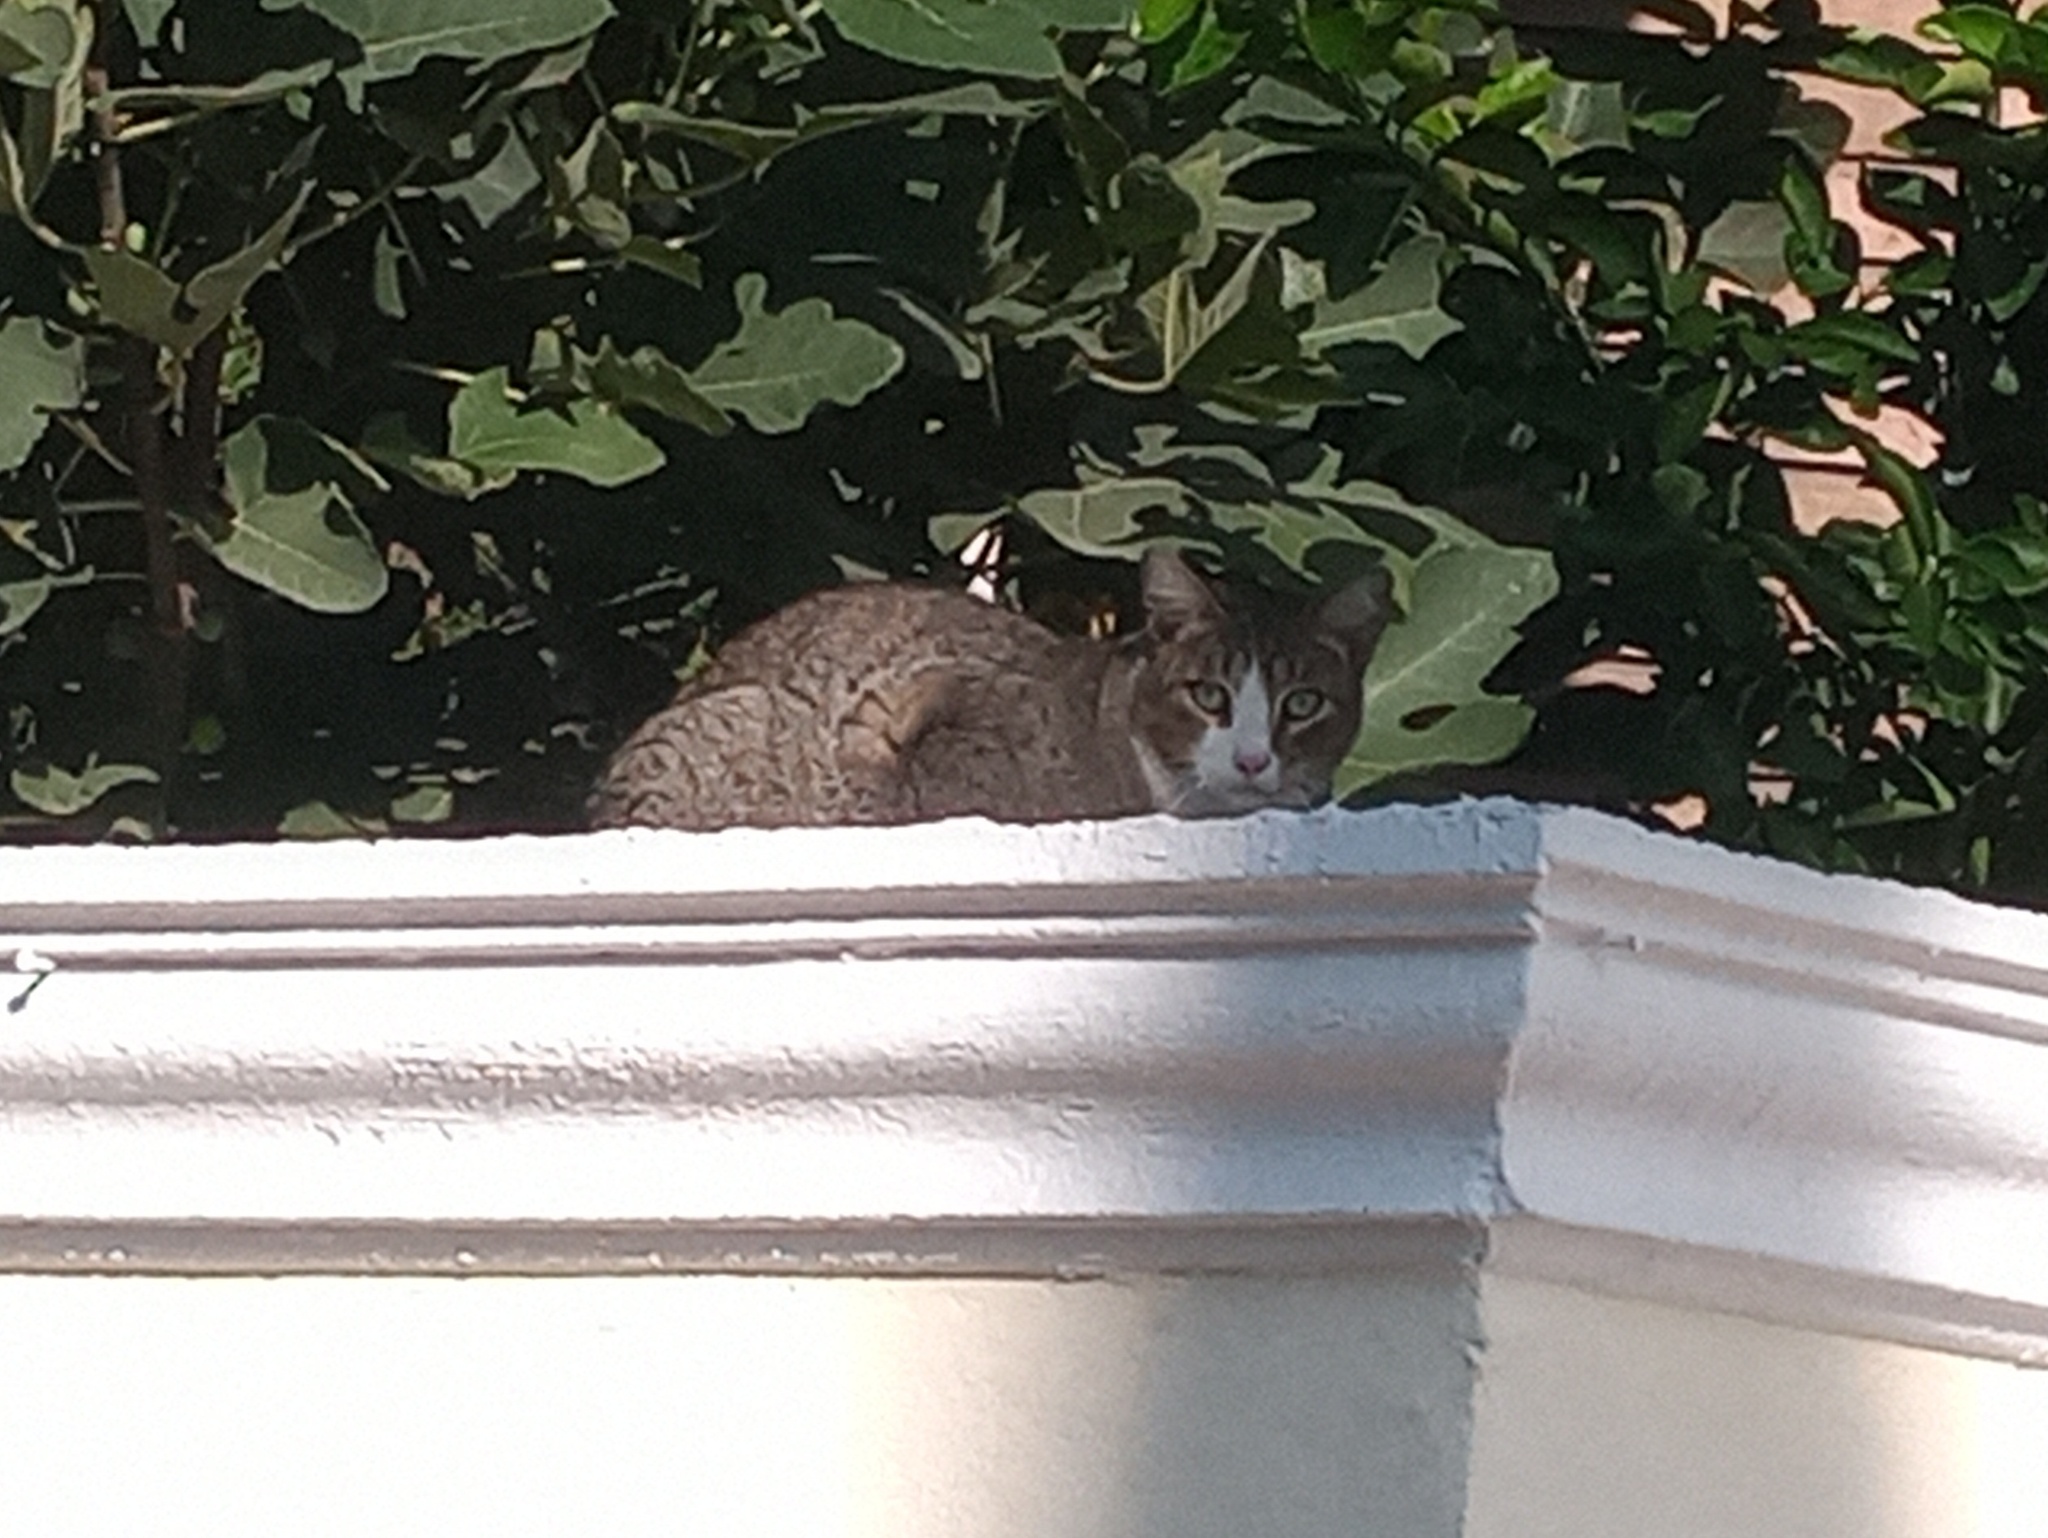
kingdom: Animalia
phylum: Chordata
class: Mammalia
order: Carnivora
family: Felidae
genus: Felis
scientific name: Felis catus
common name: Domestic cat
